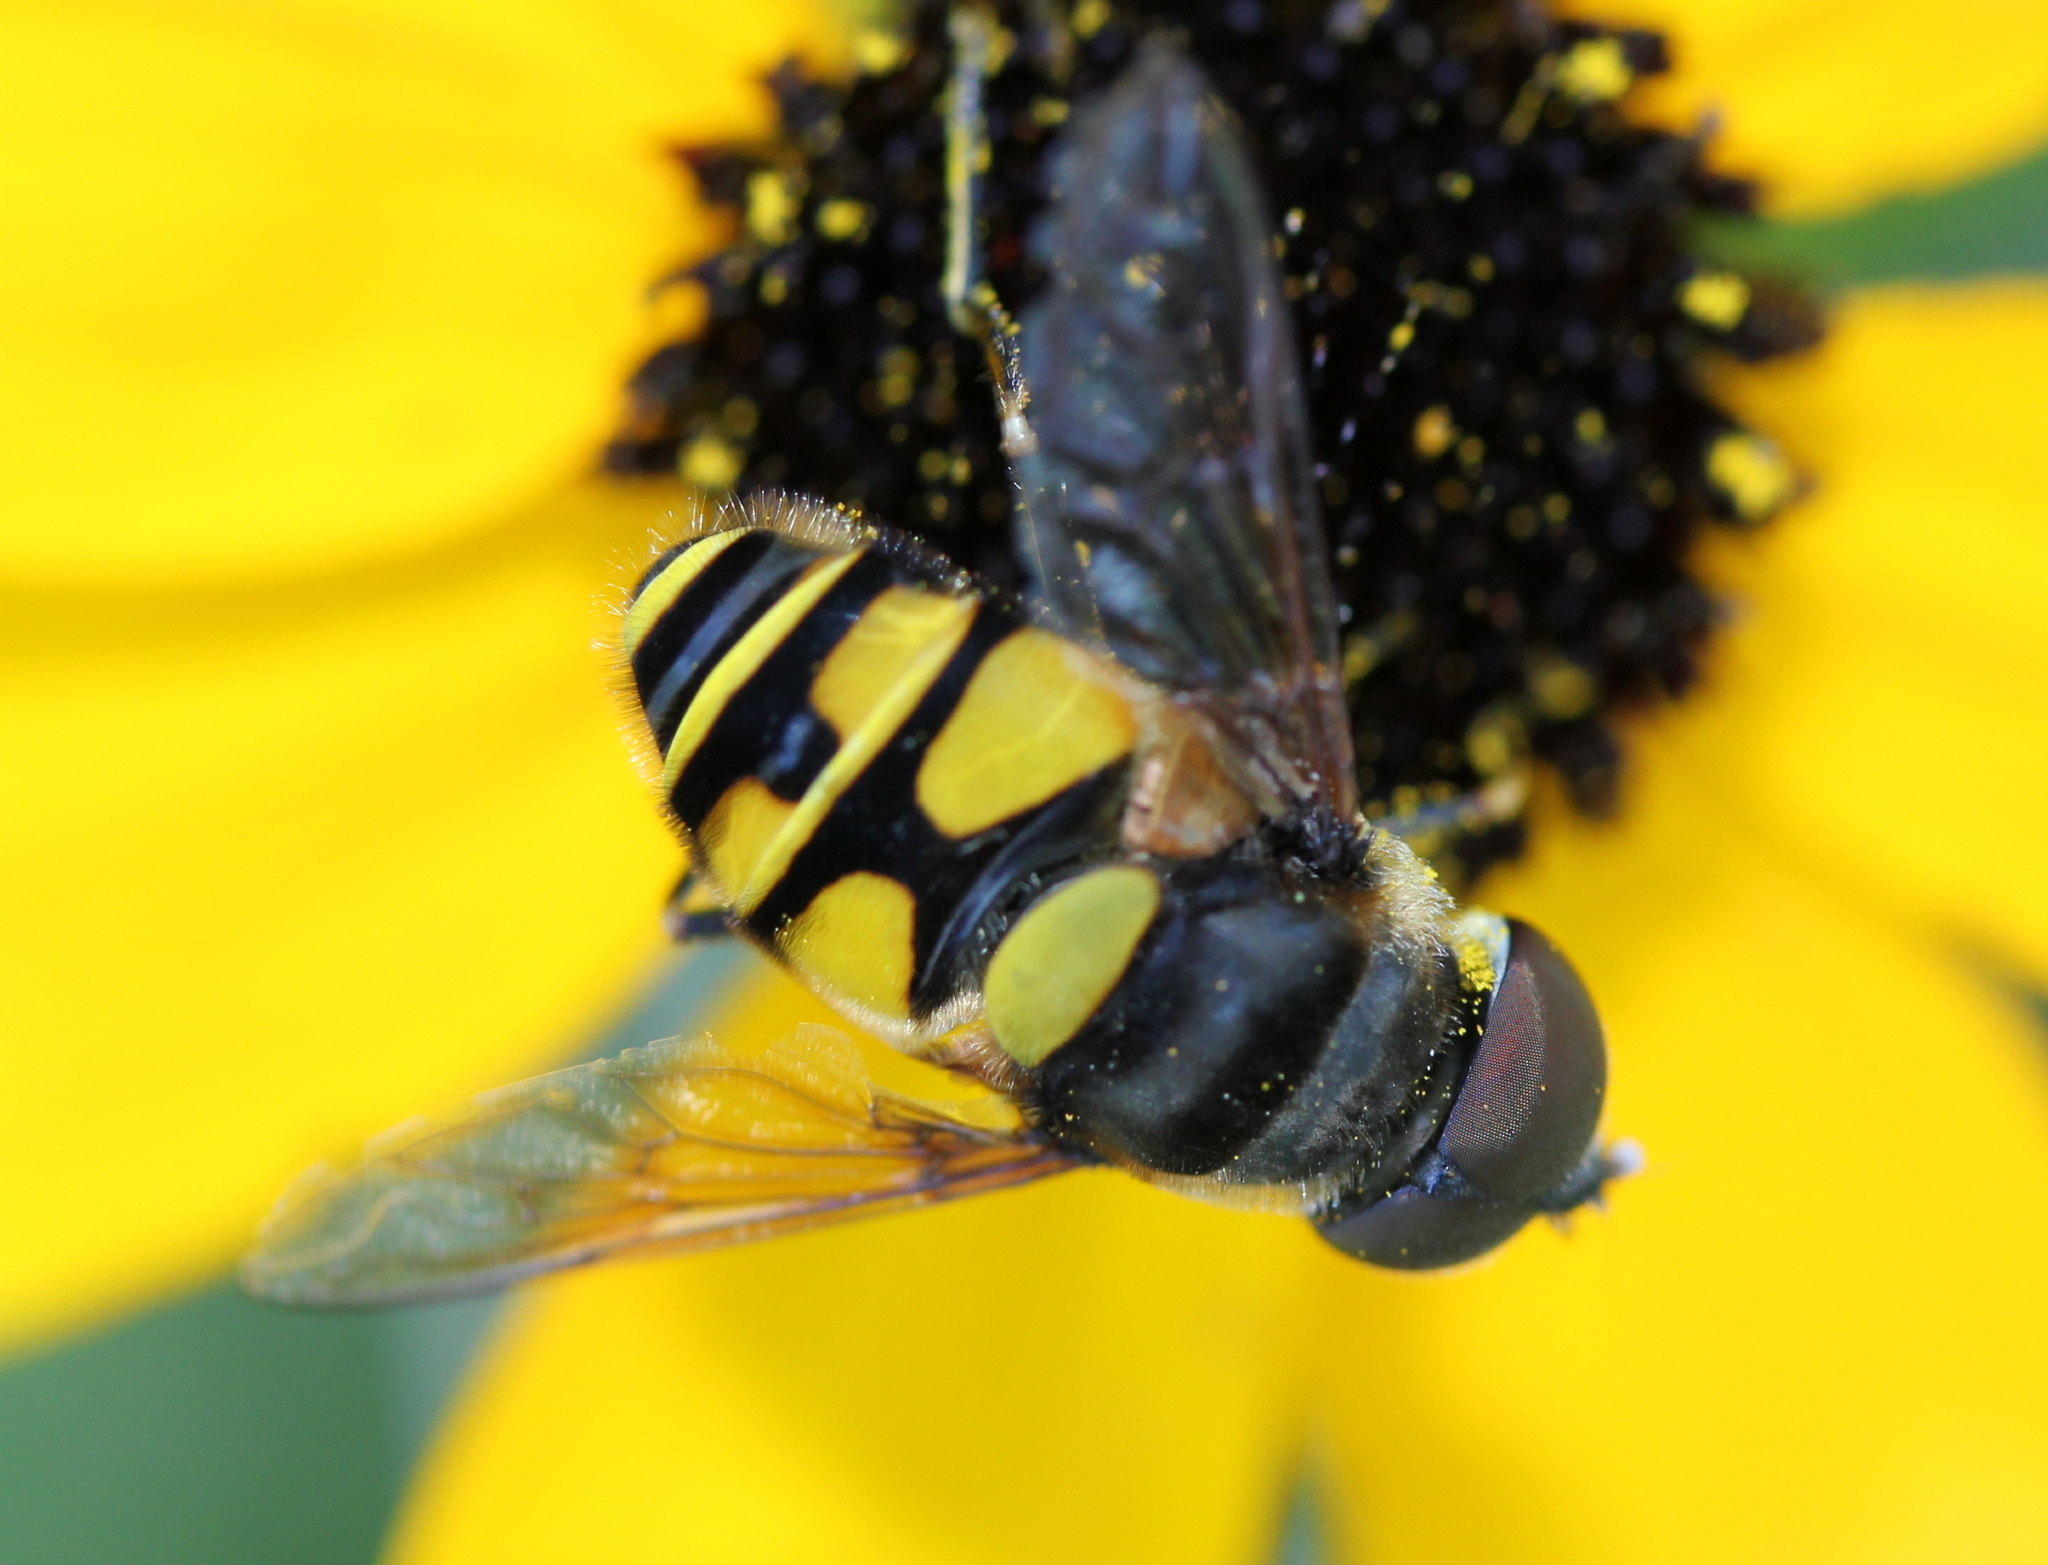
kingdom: Animalia
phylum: Arthropoda
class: Insecta
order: Diptera
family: Syrphidae
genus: Eristalis
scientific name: Eristalis transversa
